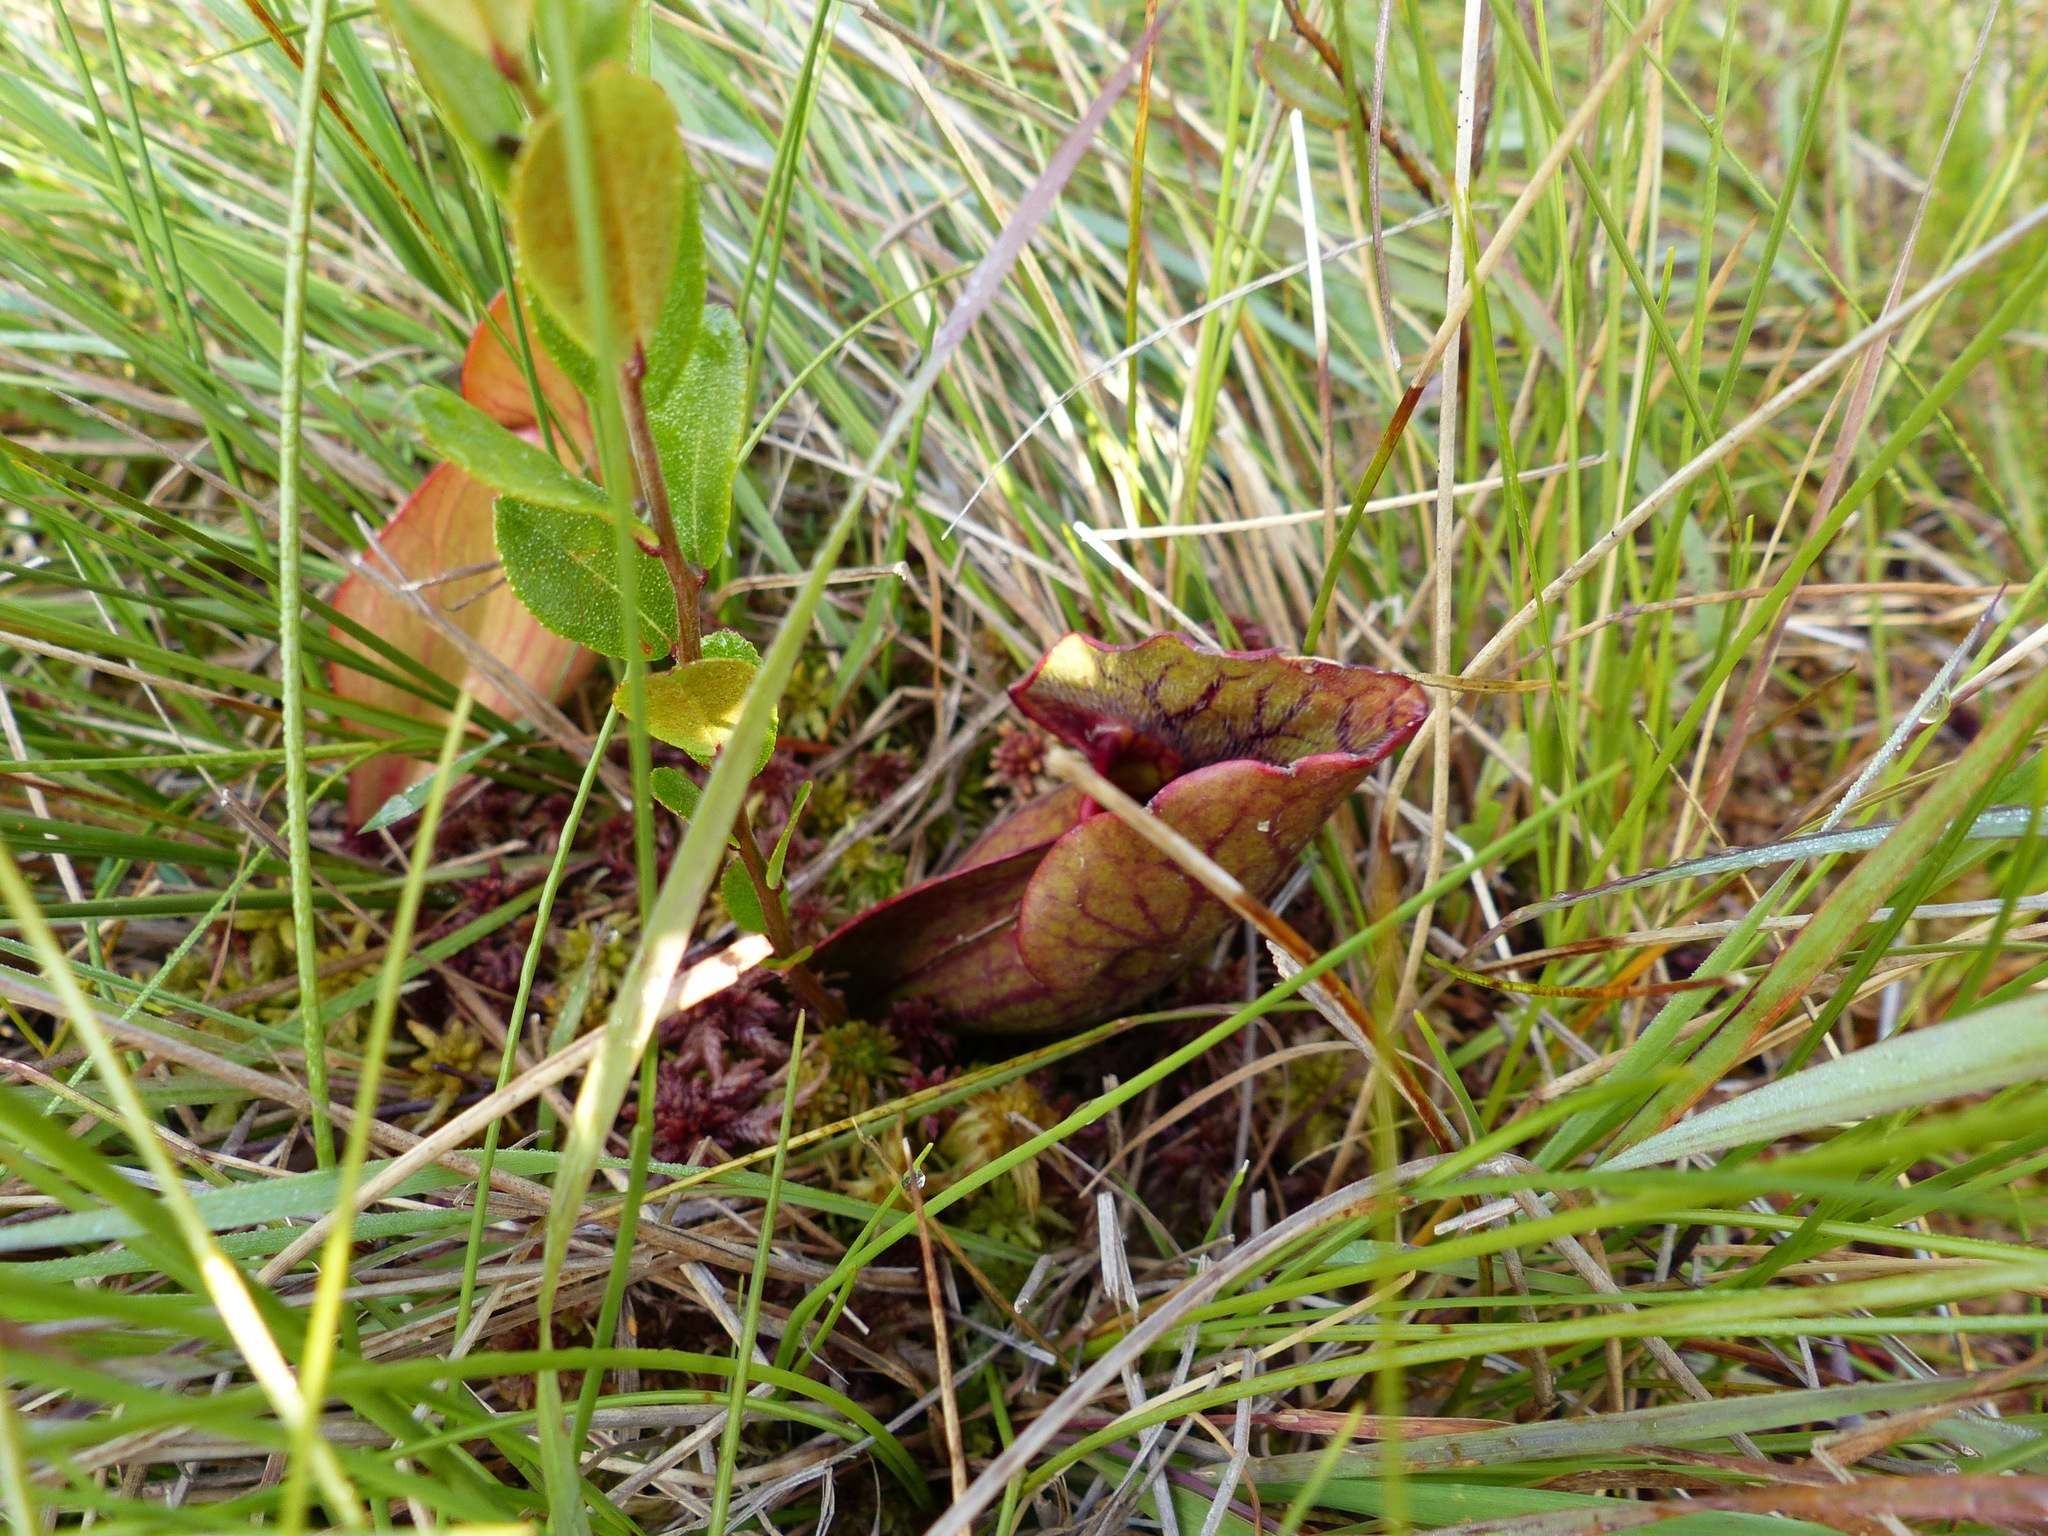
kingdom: Plantae
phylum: Tracheophyta
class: Magnoliopsida
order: Ericales
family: Sarraceniaceae
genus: Sarracenia
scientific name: Sarracenia purpurea
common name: Pitcherplant
